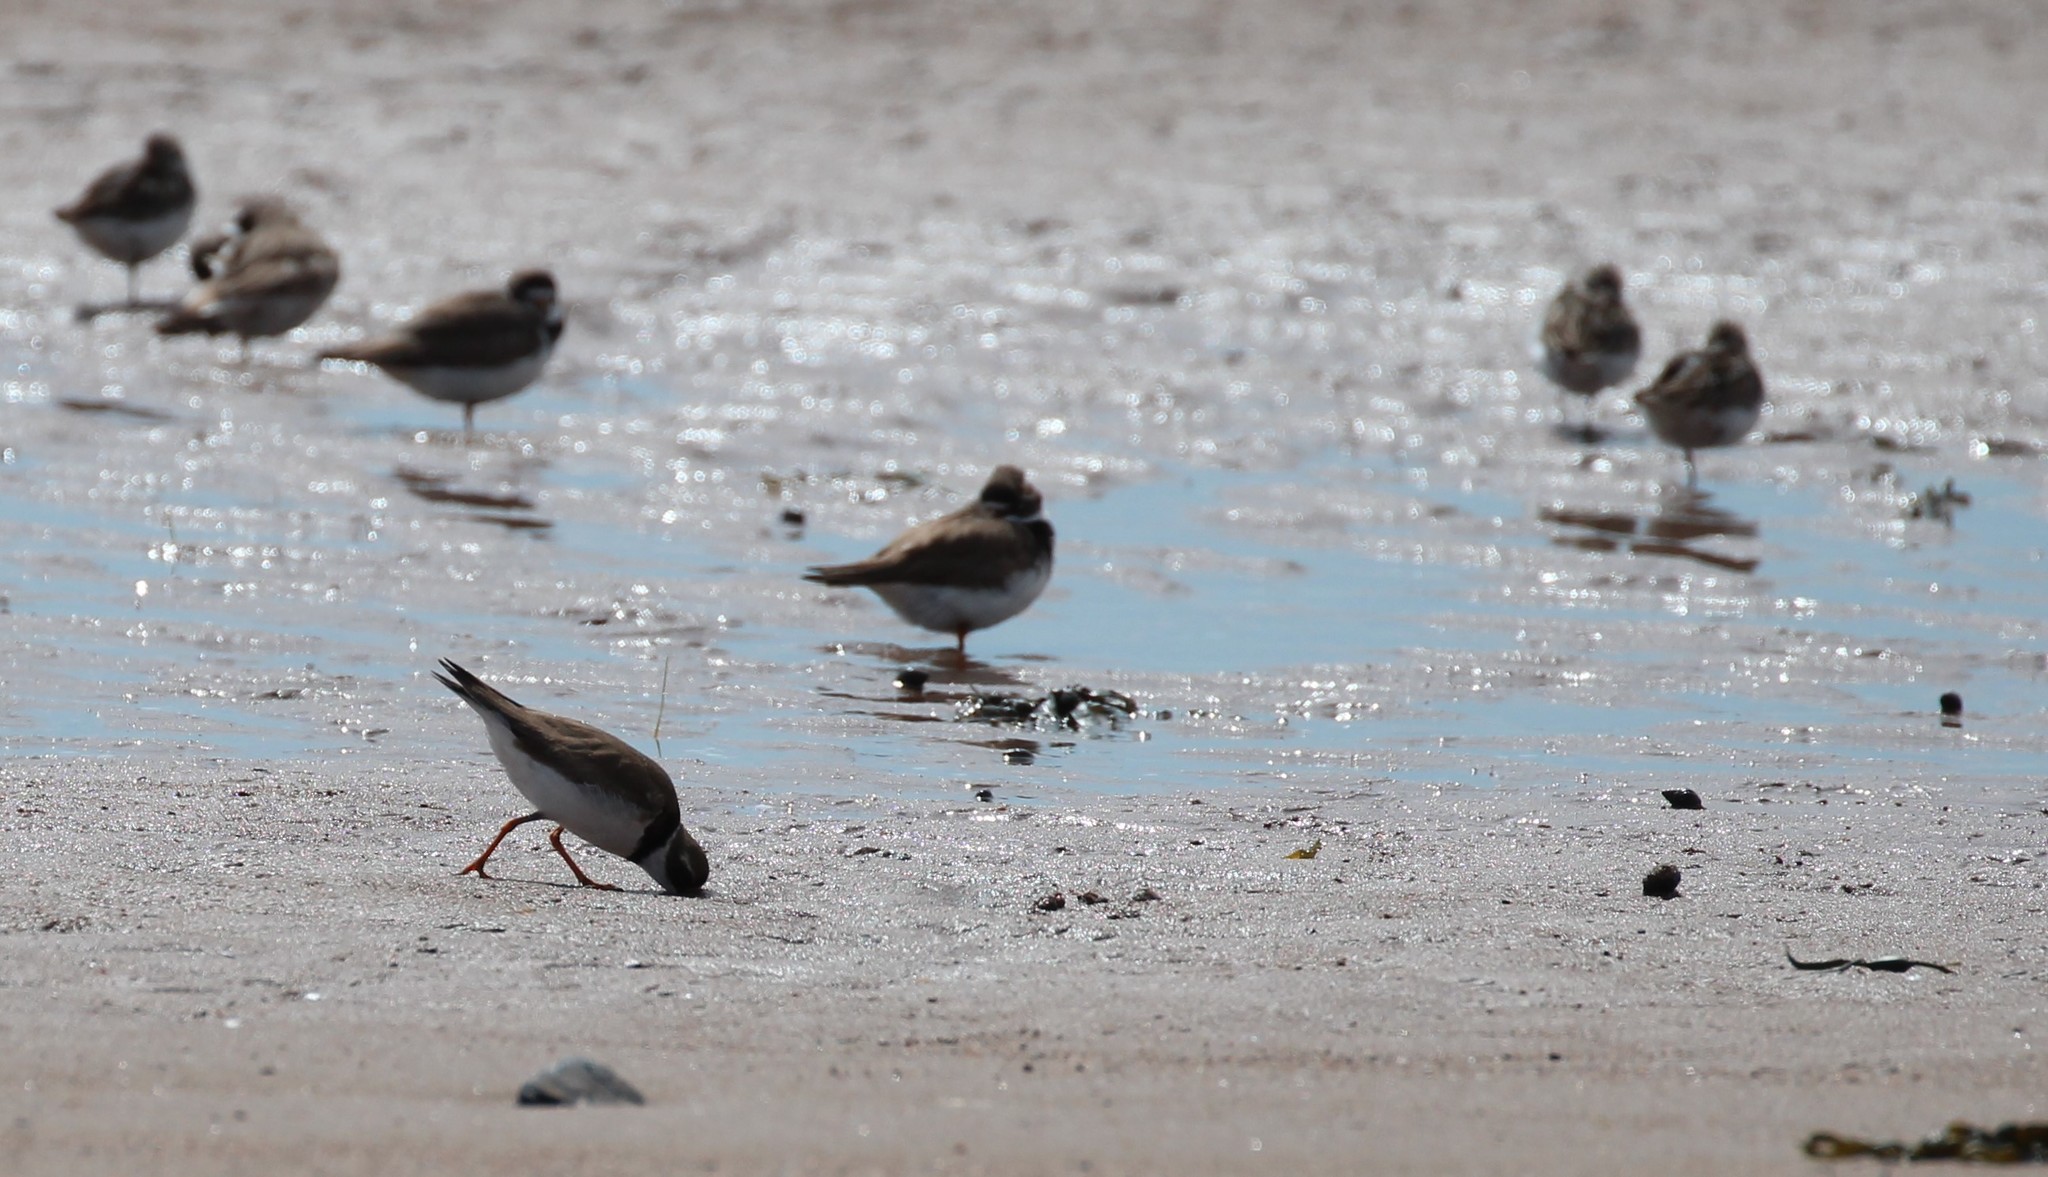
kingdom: Animalia
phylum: Chordata
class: Aves
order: Charadriiformes
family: Charadriidae
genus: Charadrius
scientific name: Charadrius semipalmatus
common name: Semipalmated plover
